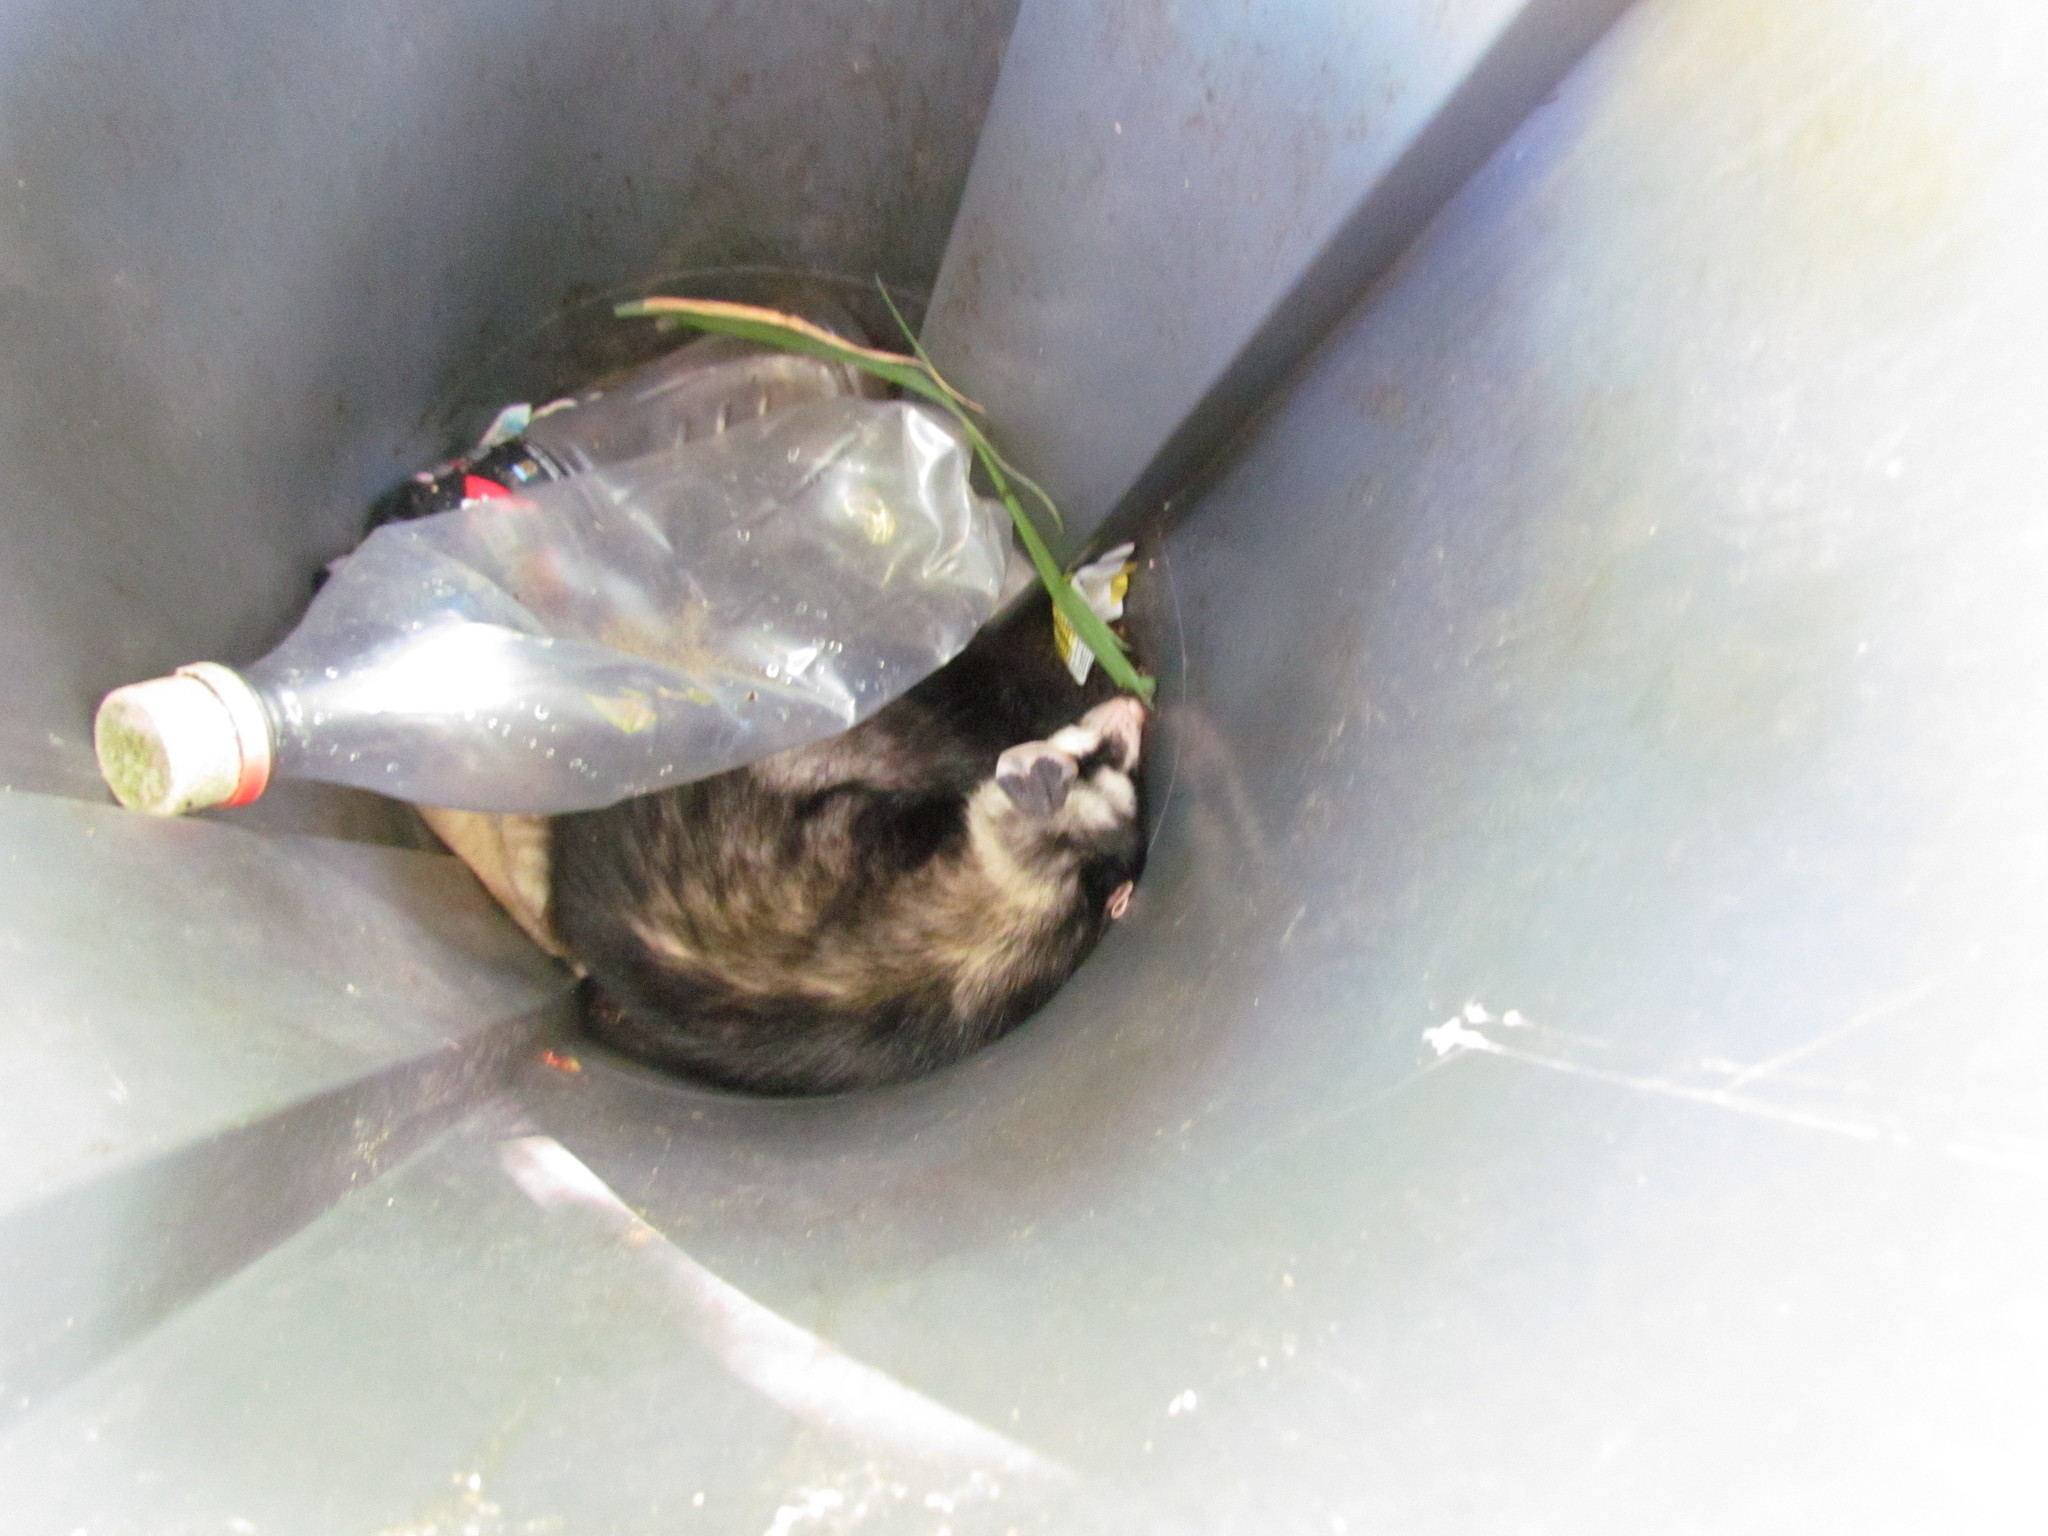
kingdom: Animalia
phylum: Chordata
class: Mammalia
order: Didelphimorphia
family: Didelphidae
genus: Didelphis
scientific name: Didelphis albiventris
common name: White-eared opossum
